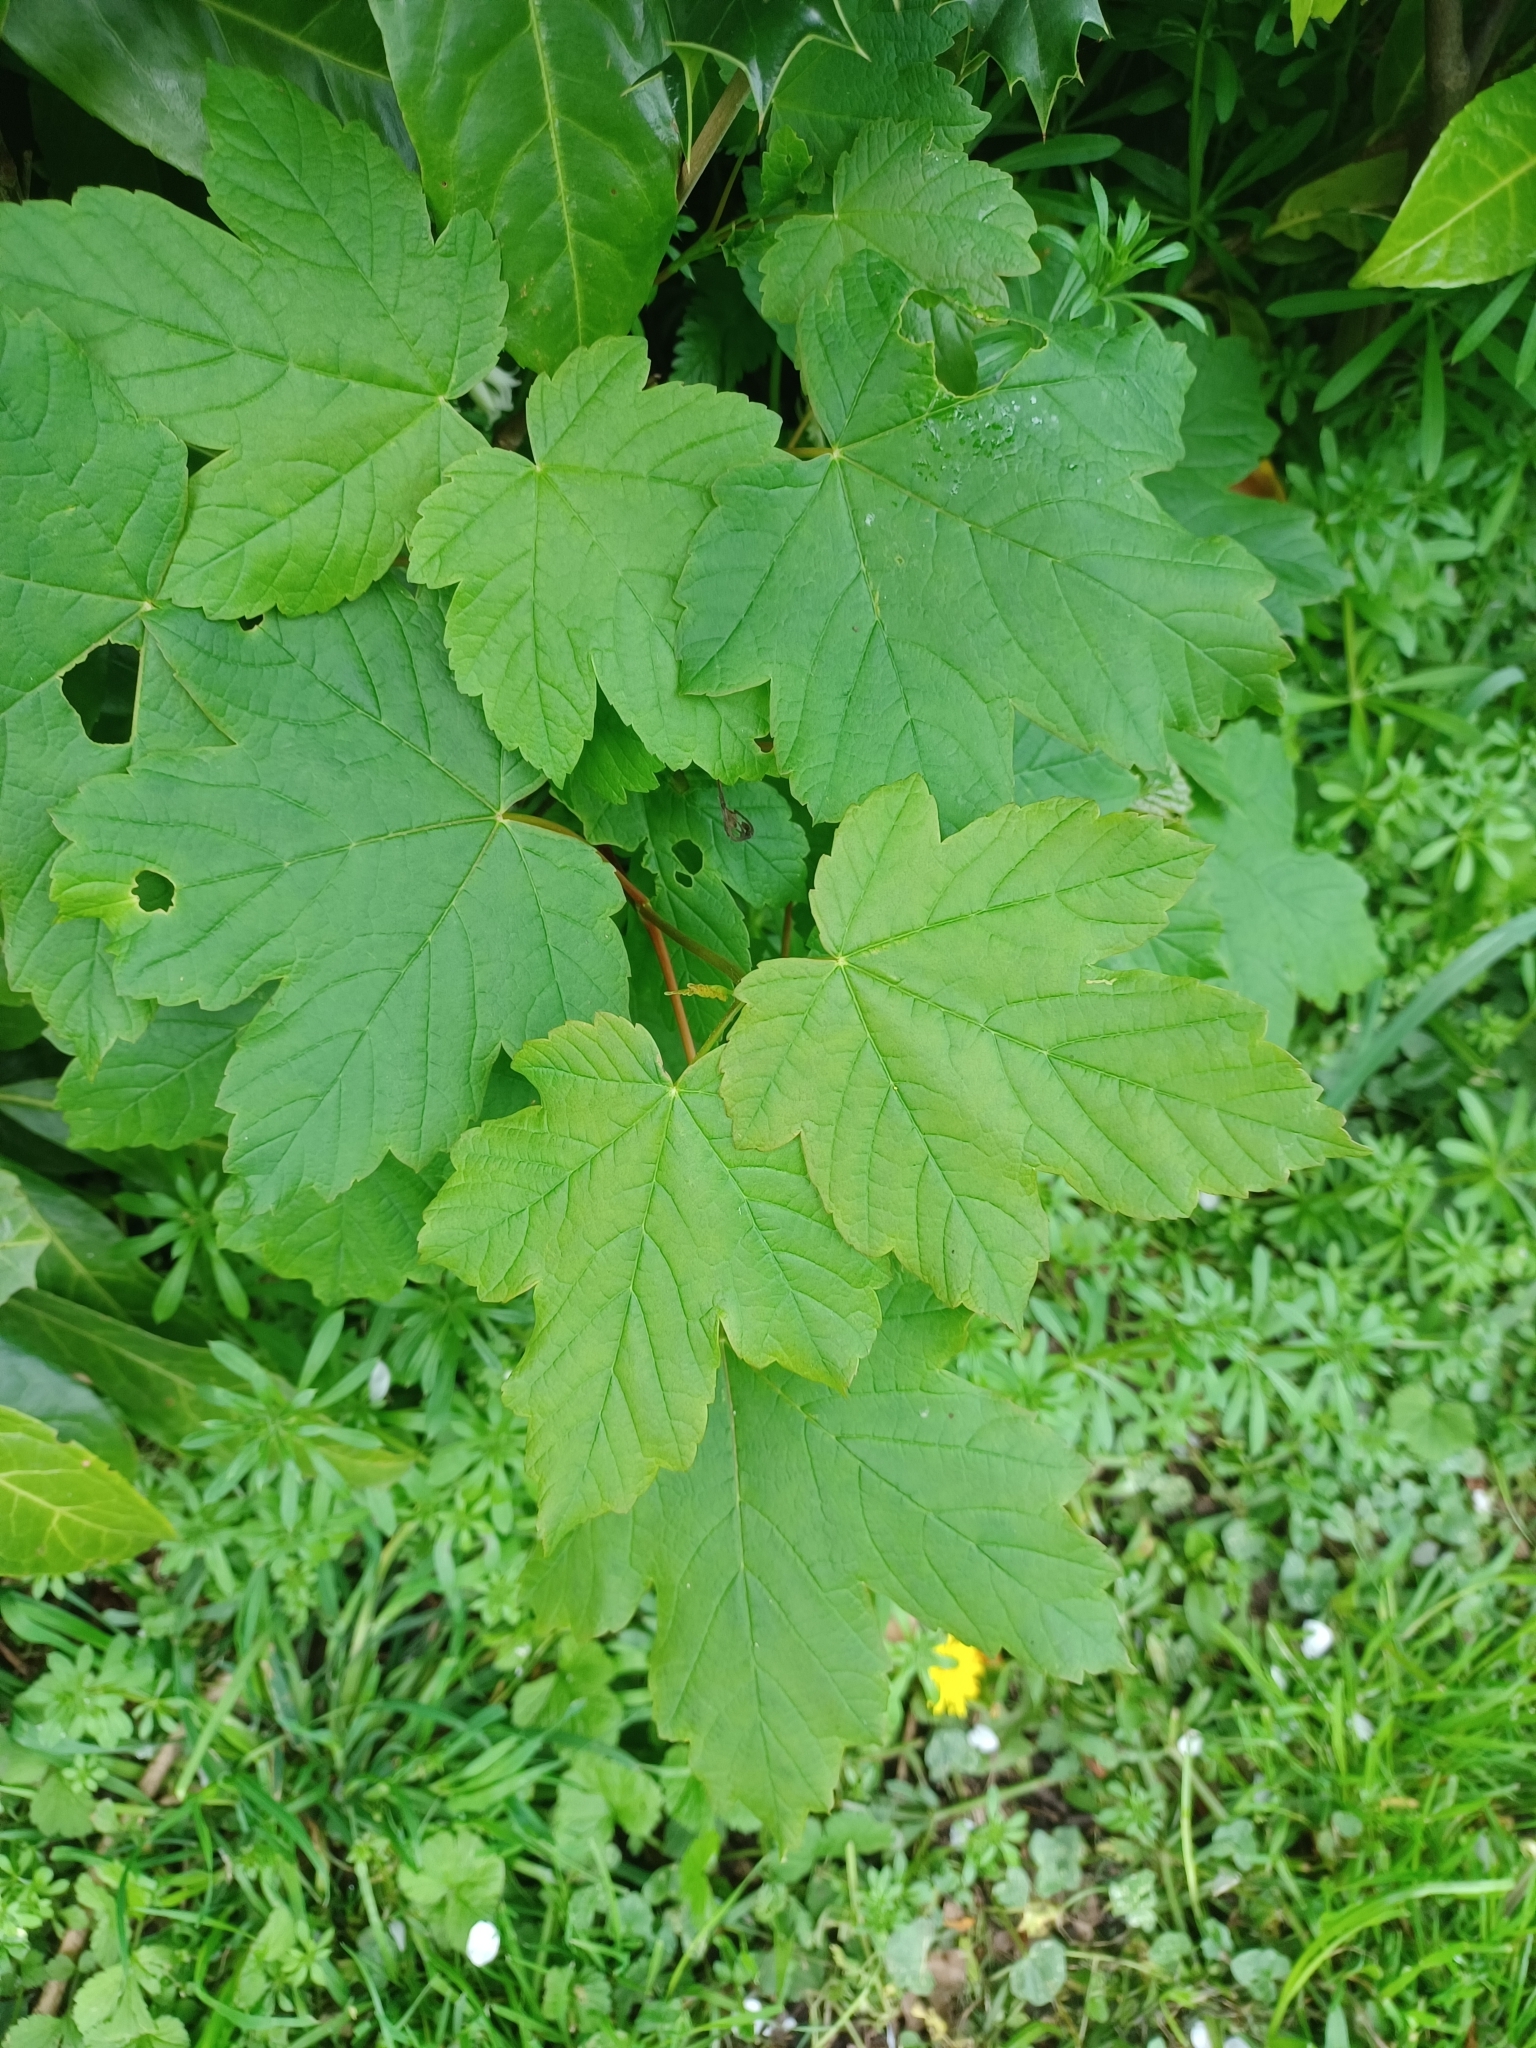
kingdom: Plantae
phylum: Tracheophyta
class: Magnoliopsida
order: Sapindales
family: Sapindaceae
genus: Acer
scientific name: Acer pseudoplatanus
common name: Sycamore
